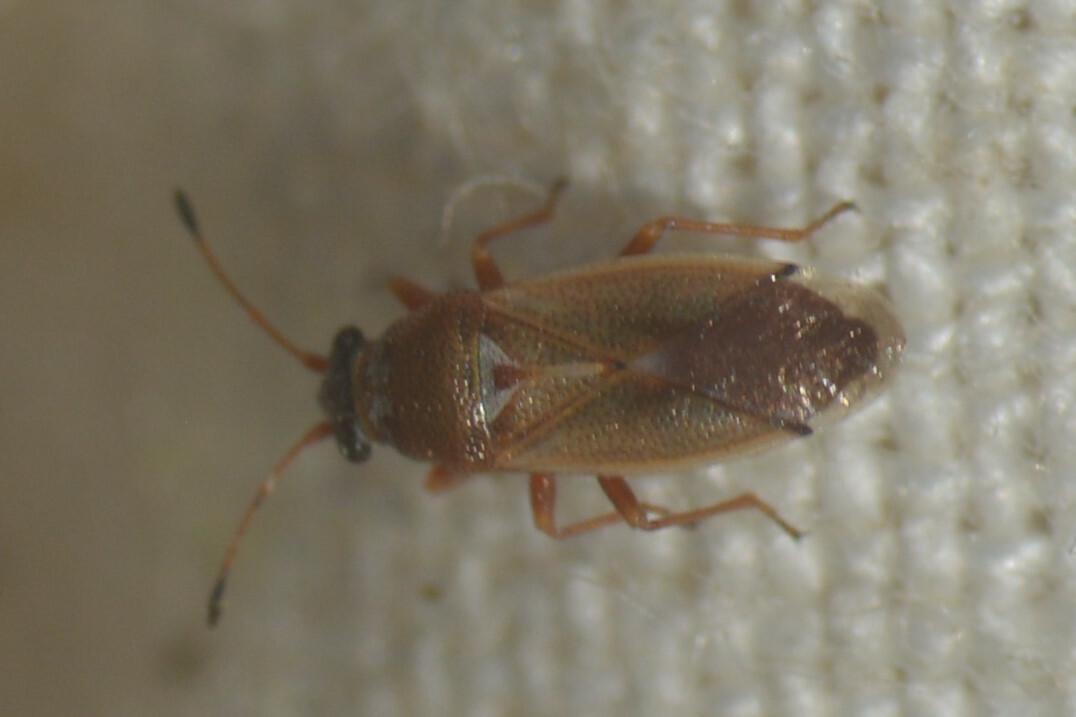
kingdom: Animalia
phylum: Arthropoda
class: Insecta
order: Hemiptera
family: Cymidae
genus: Cymus
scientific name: Cymus melanocephalus
